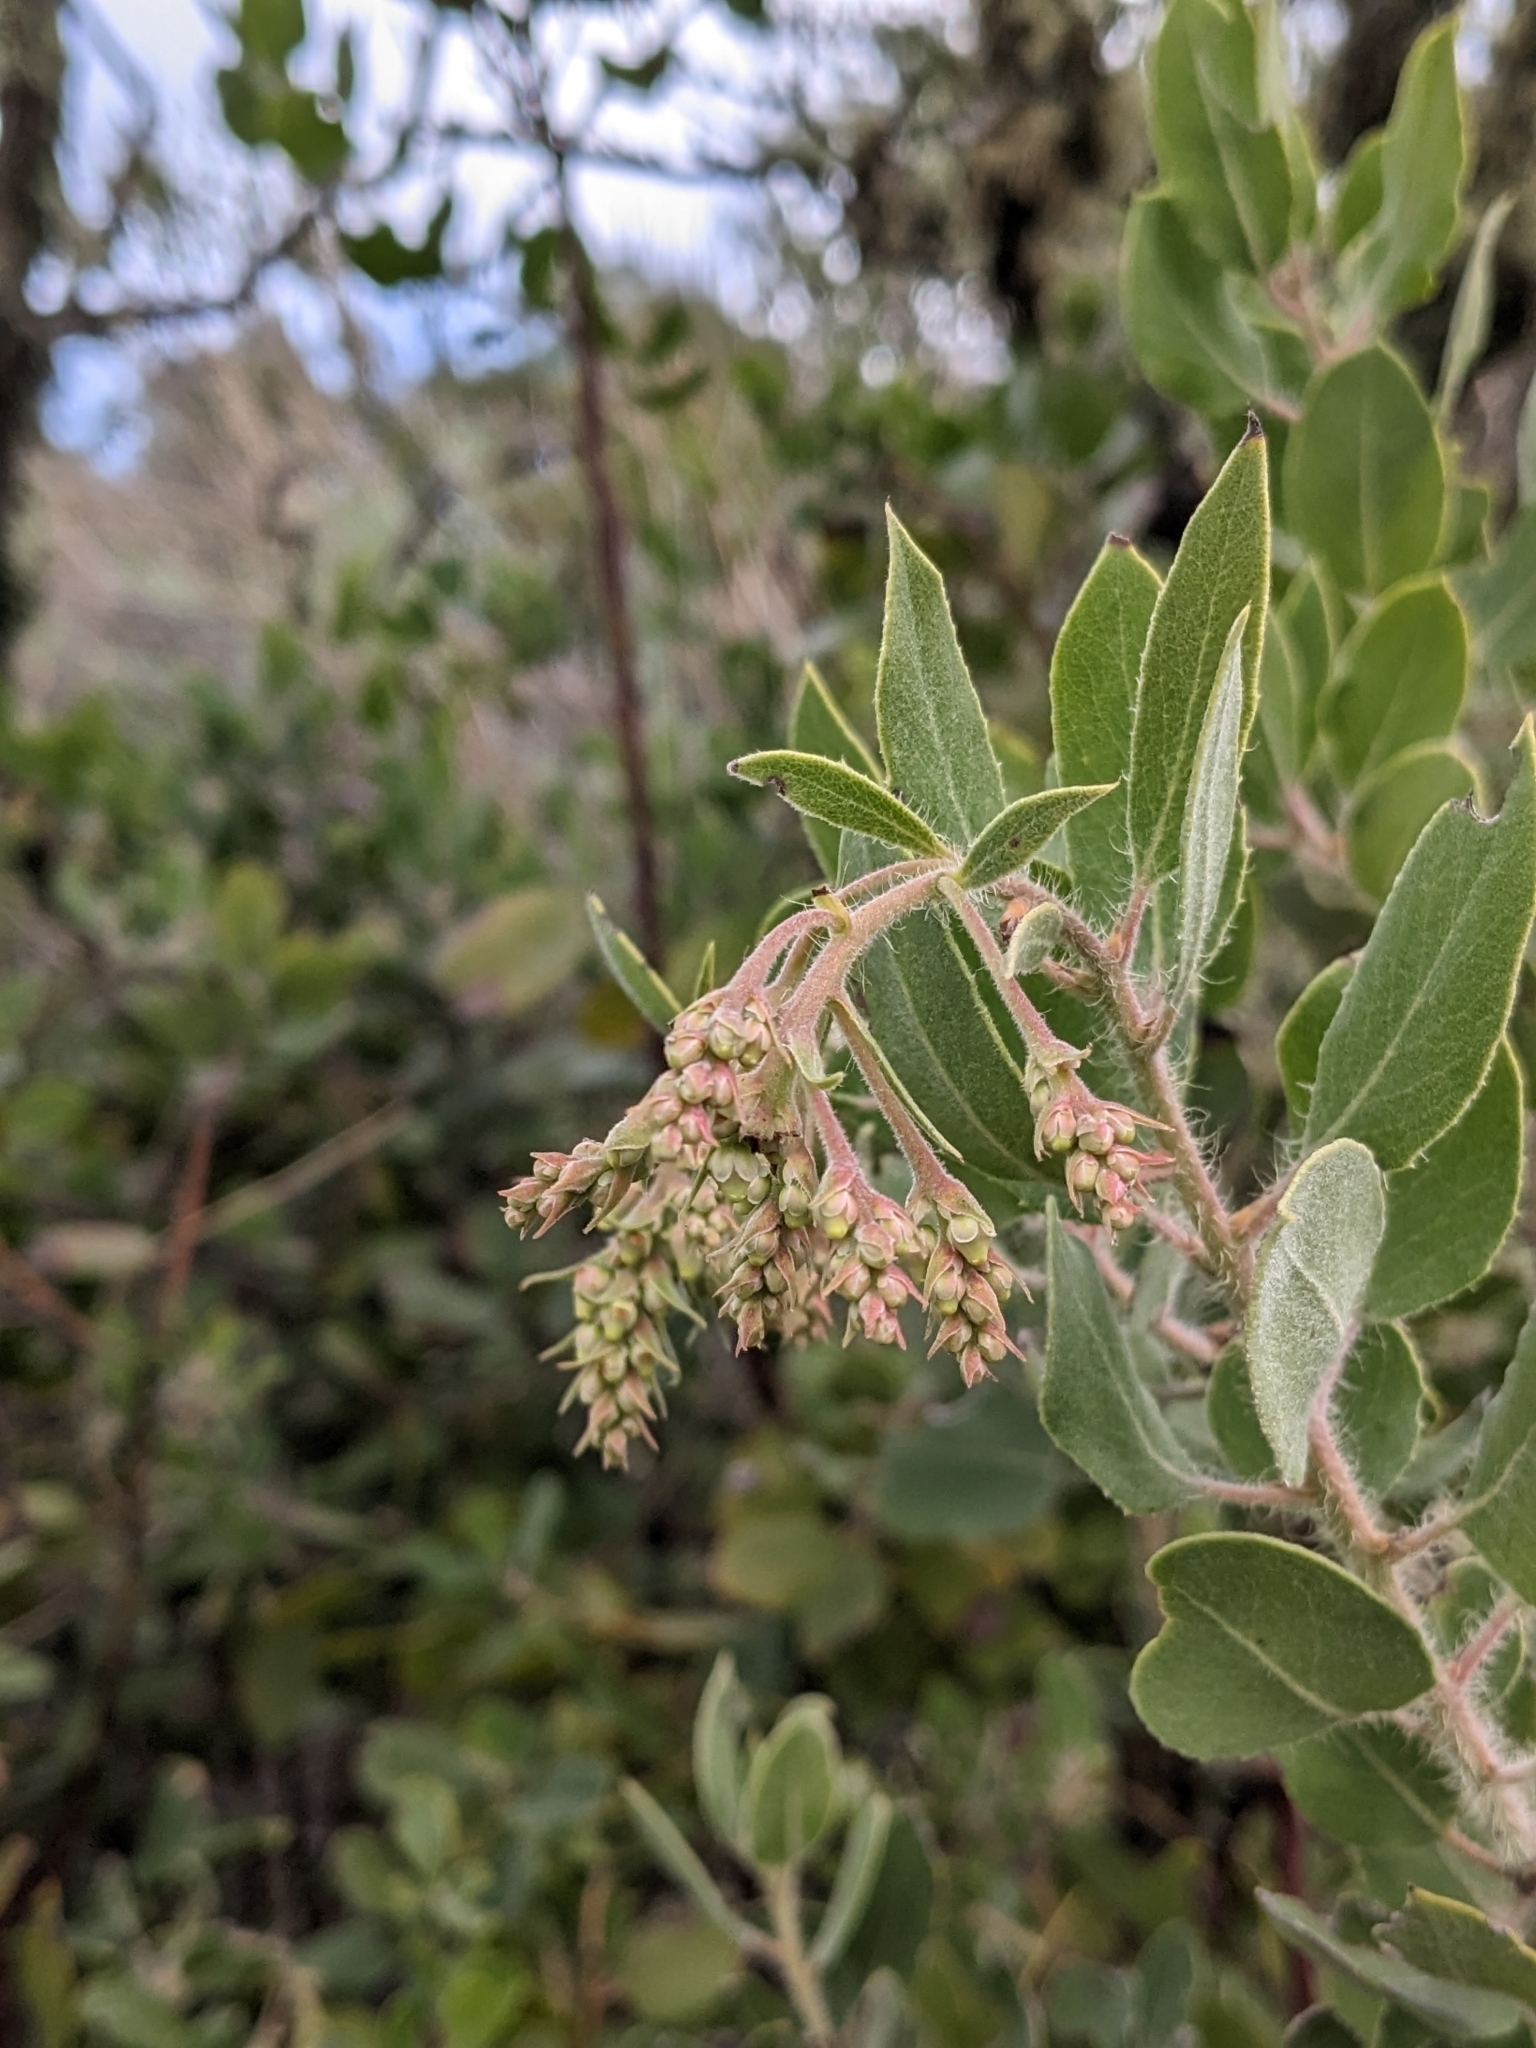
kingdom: Plantae
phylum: Tracheophyta
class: Magnoliopsida
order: Ericales
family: Ericaceae
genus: Arctostaphylos
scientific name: Arctostaphylos crustacea
